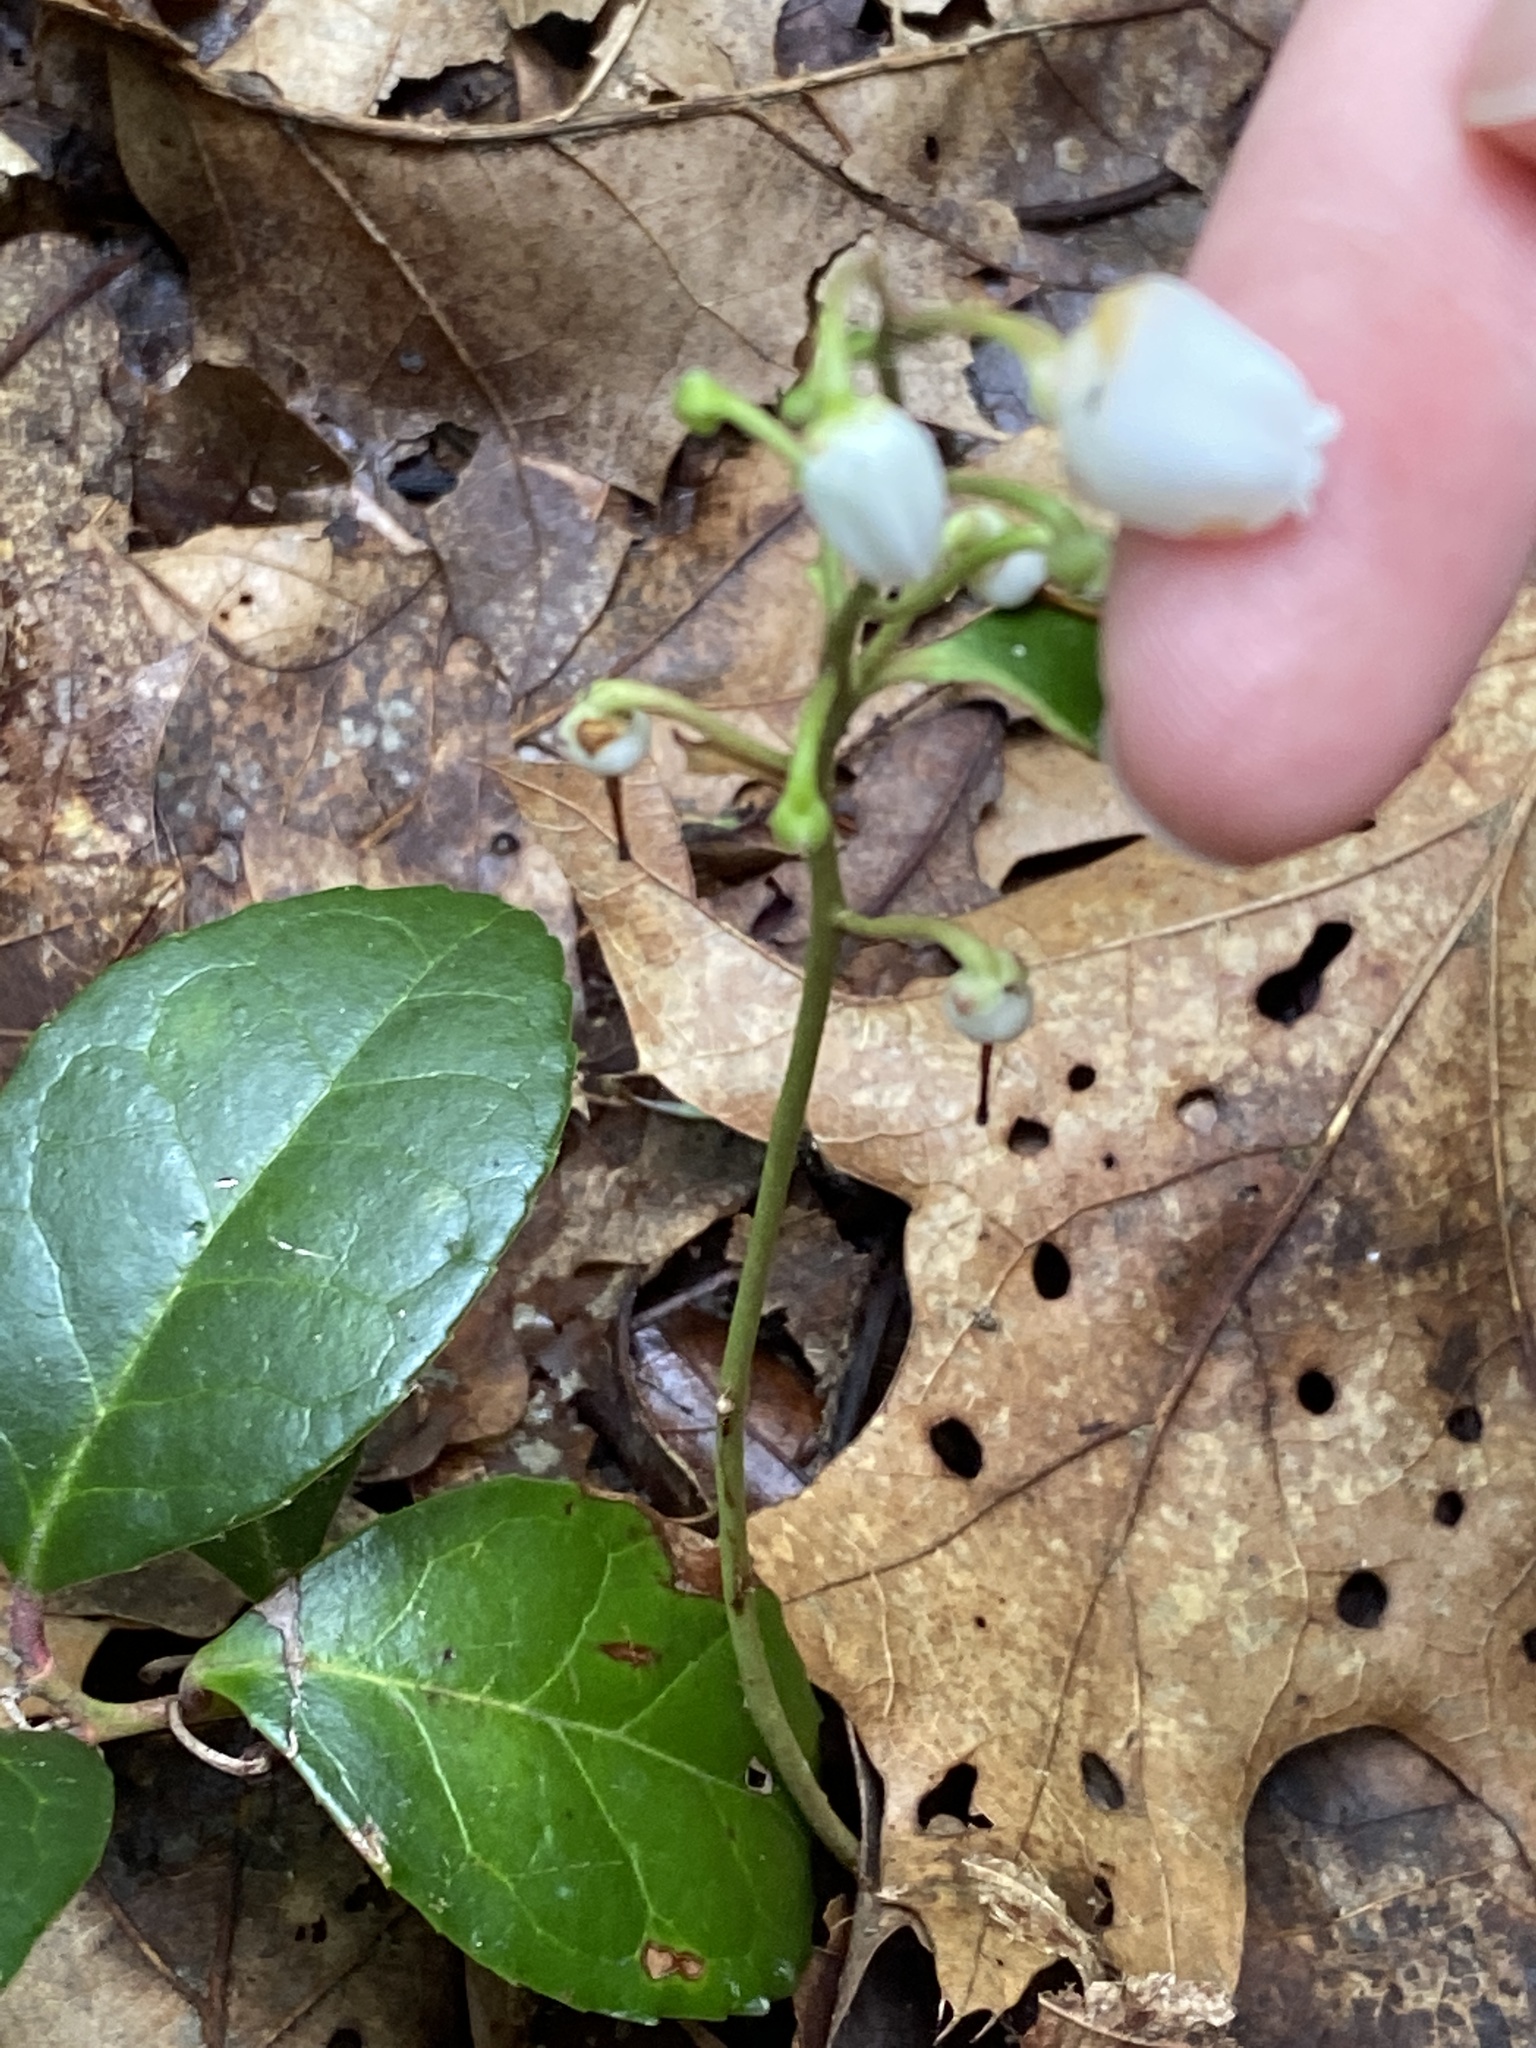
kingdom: Plantae
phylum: Tracheophyta
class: Magnoliopsida
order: Ericales
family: Ericaceae
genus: Gaultheria
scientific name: Gaultheria procumbens
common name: Checkerberry
